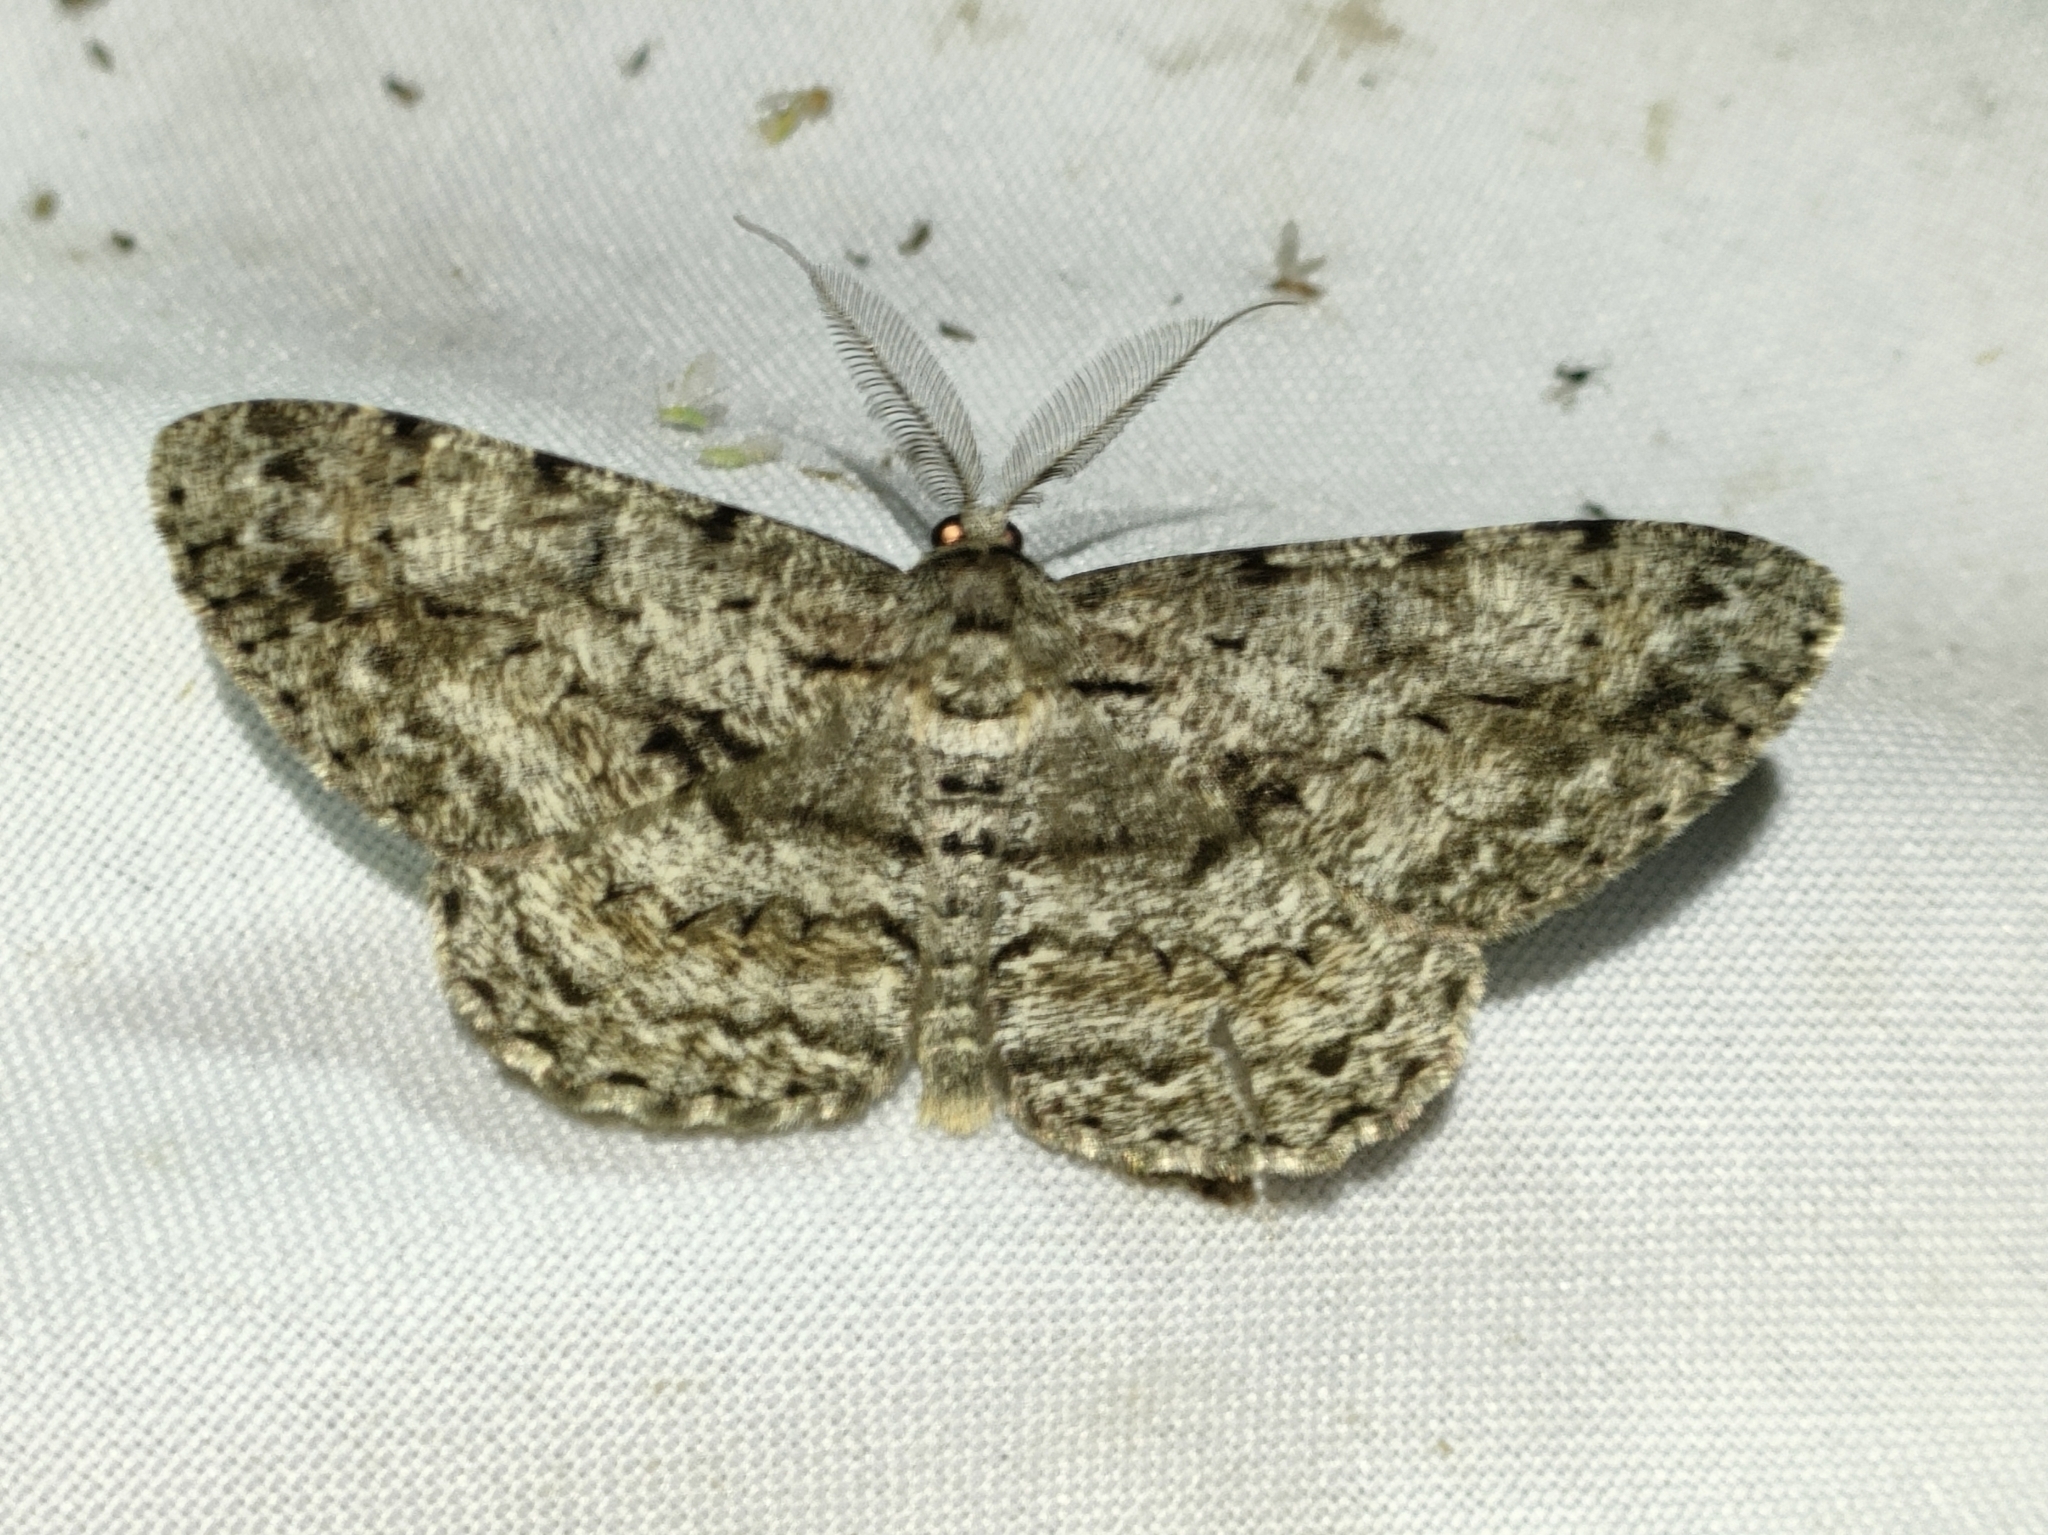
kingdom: Animalia
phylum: Arthropoda
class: Insecta
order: Lepidoptera
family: Geometridae
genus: Hypomecis
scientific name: Hypomecis roboraria
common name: Great oak beauty
